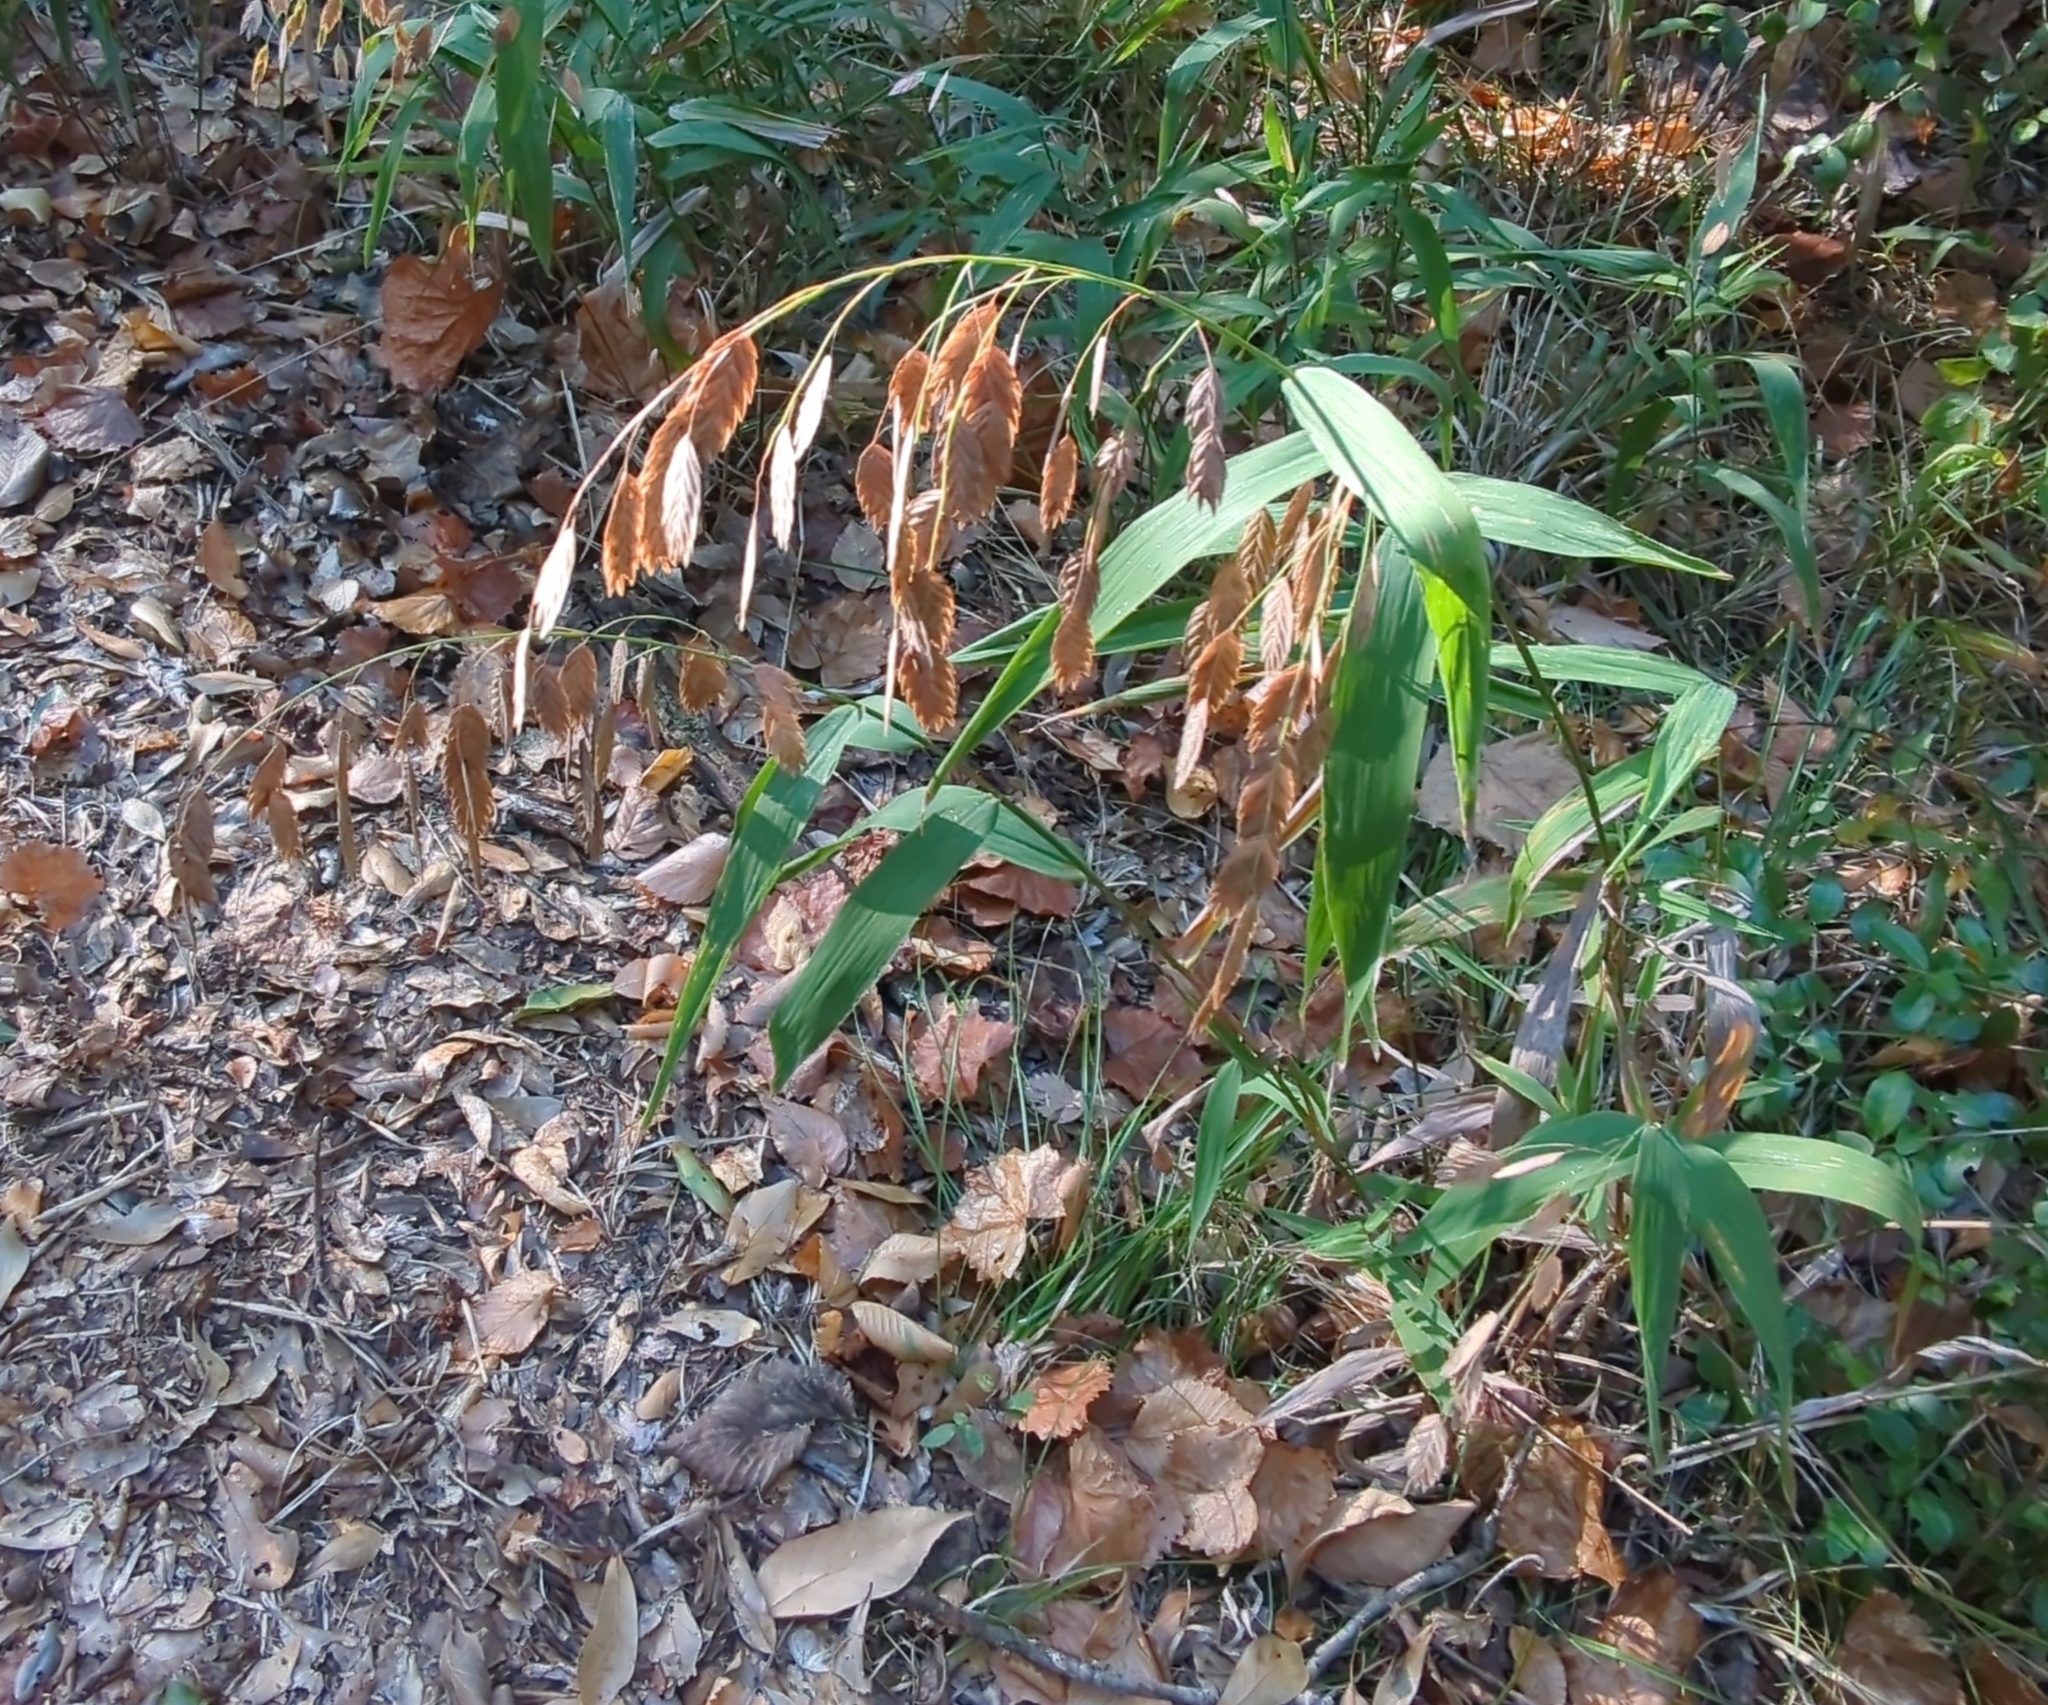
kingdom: Plantae
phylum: Tracheophyta
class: Liliopsida
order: Poales
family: Poaceae
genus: Chasmanthium
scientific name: Chasmanthium latifolium
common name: Broad-leaved chasmanthium
